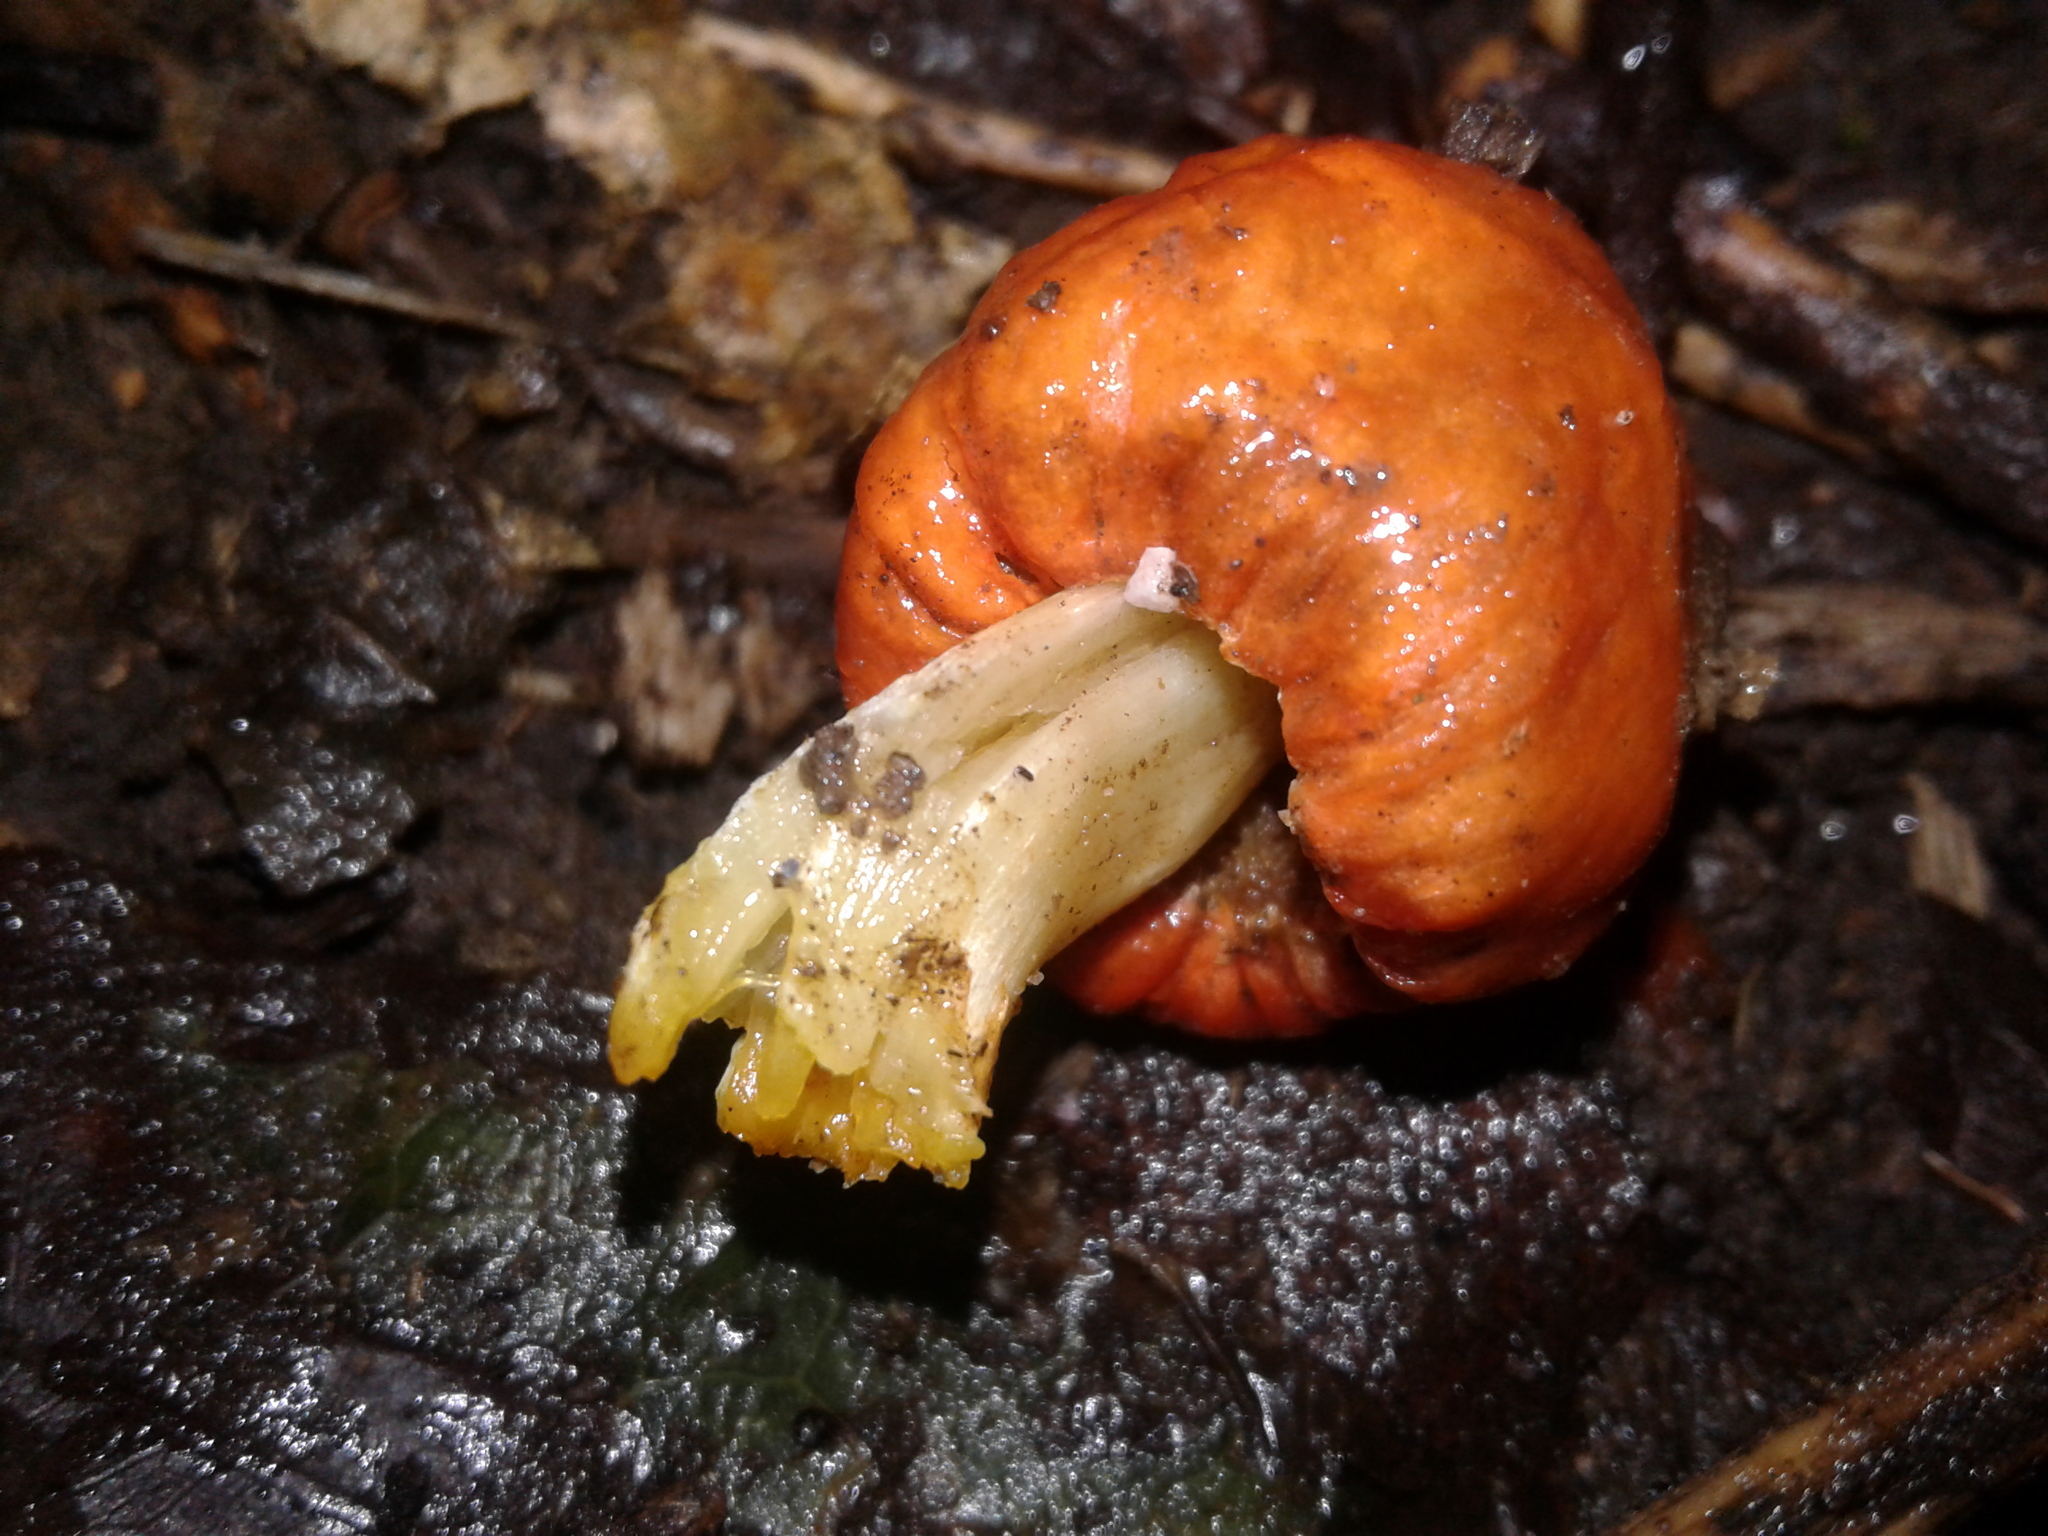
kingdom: Fungi
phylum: Basidiomycota
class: Agaricomycetes
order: Agaricales
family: Strophariaceae
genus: Leratiomyces
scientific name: Leratiomyces erythrocephalus
